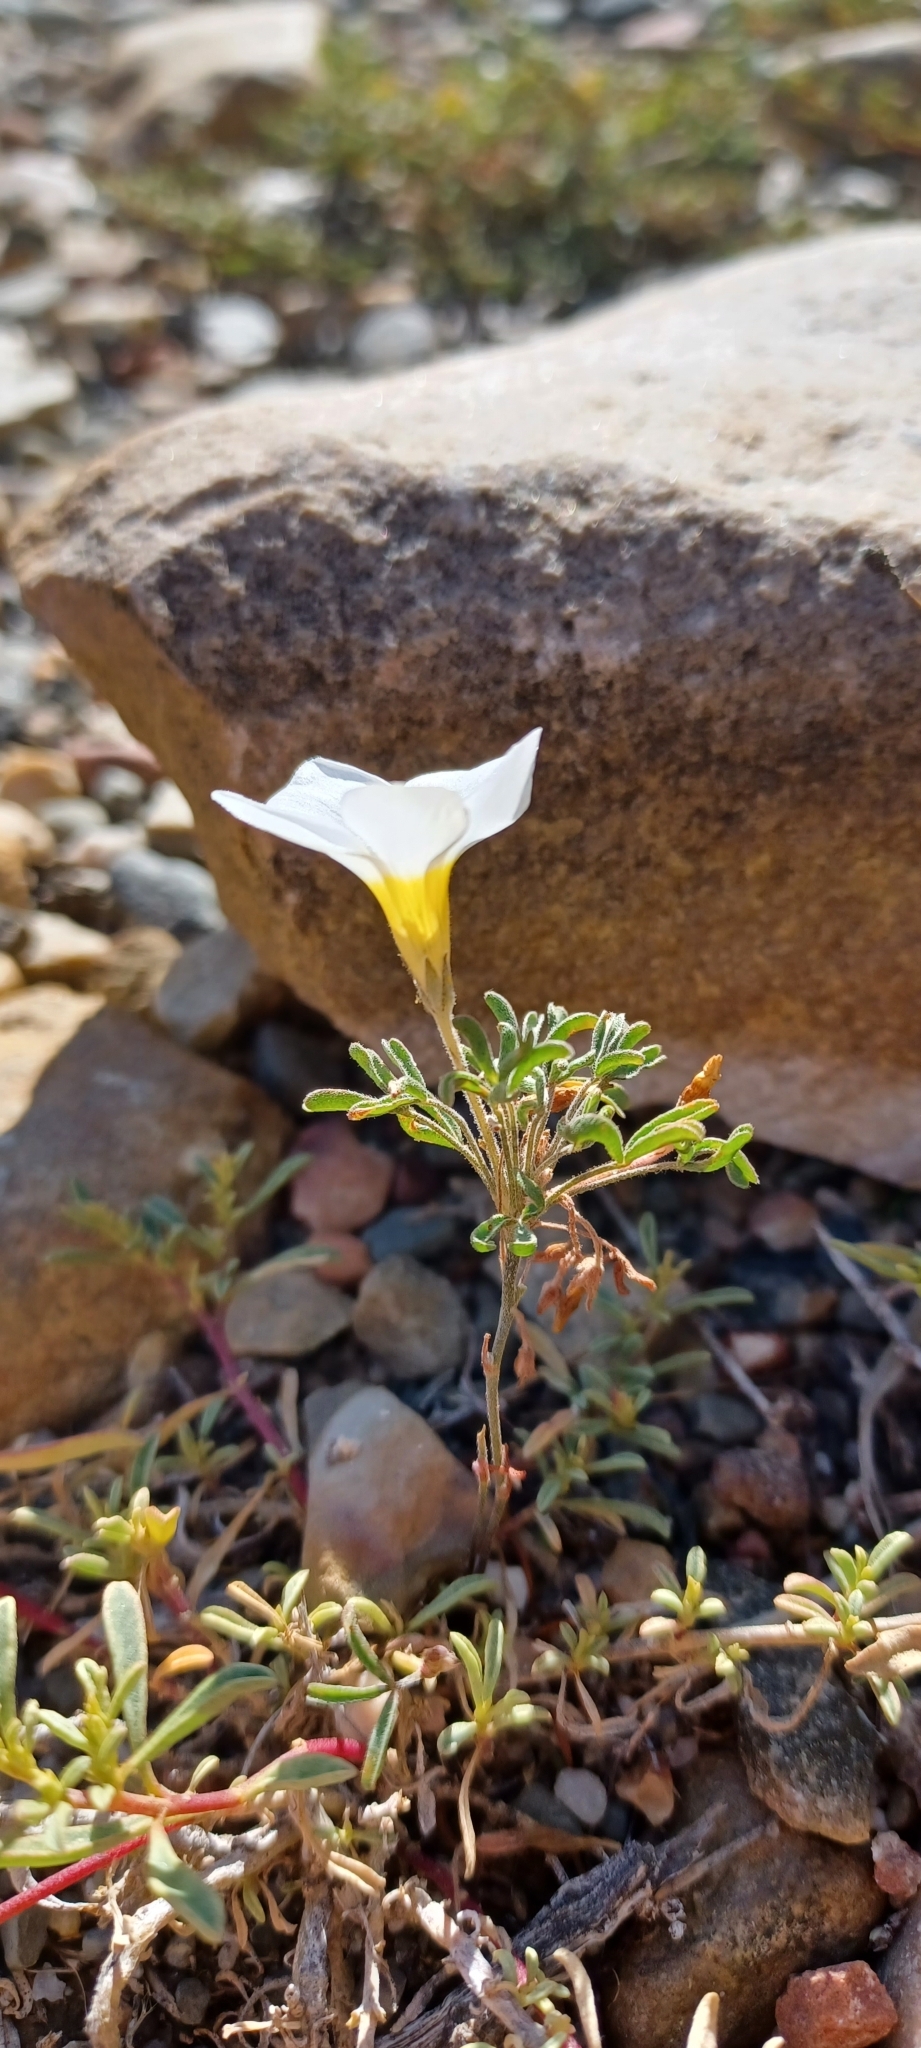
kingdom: Plantae
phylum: Tracheophyta
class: Magnoliopsida
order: Oxalidales
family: Oxalidaceae
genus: Oxalis
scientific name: Oxalis ciliaris
